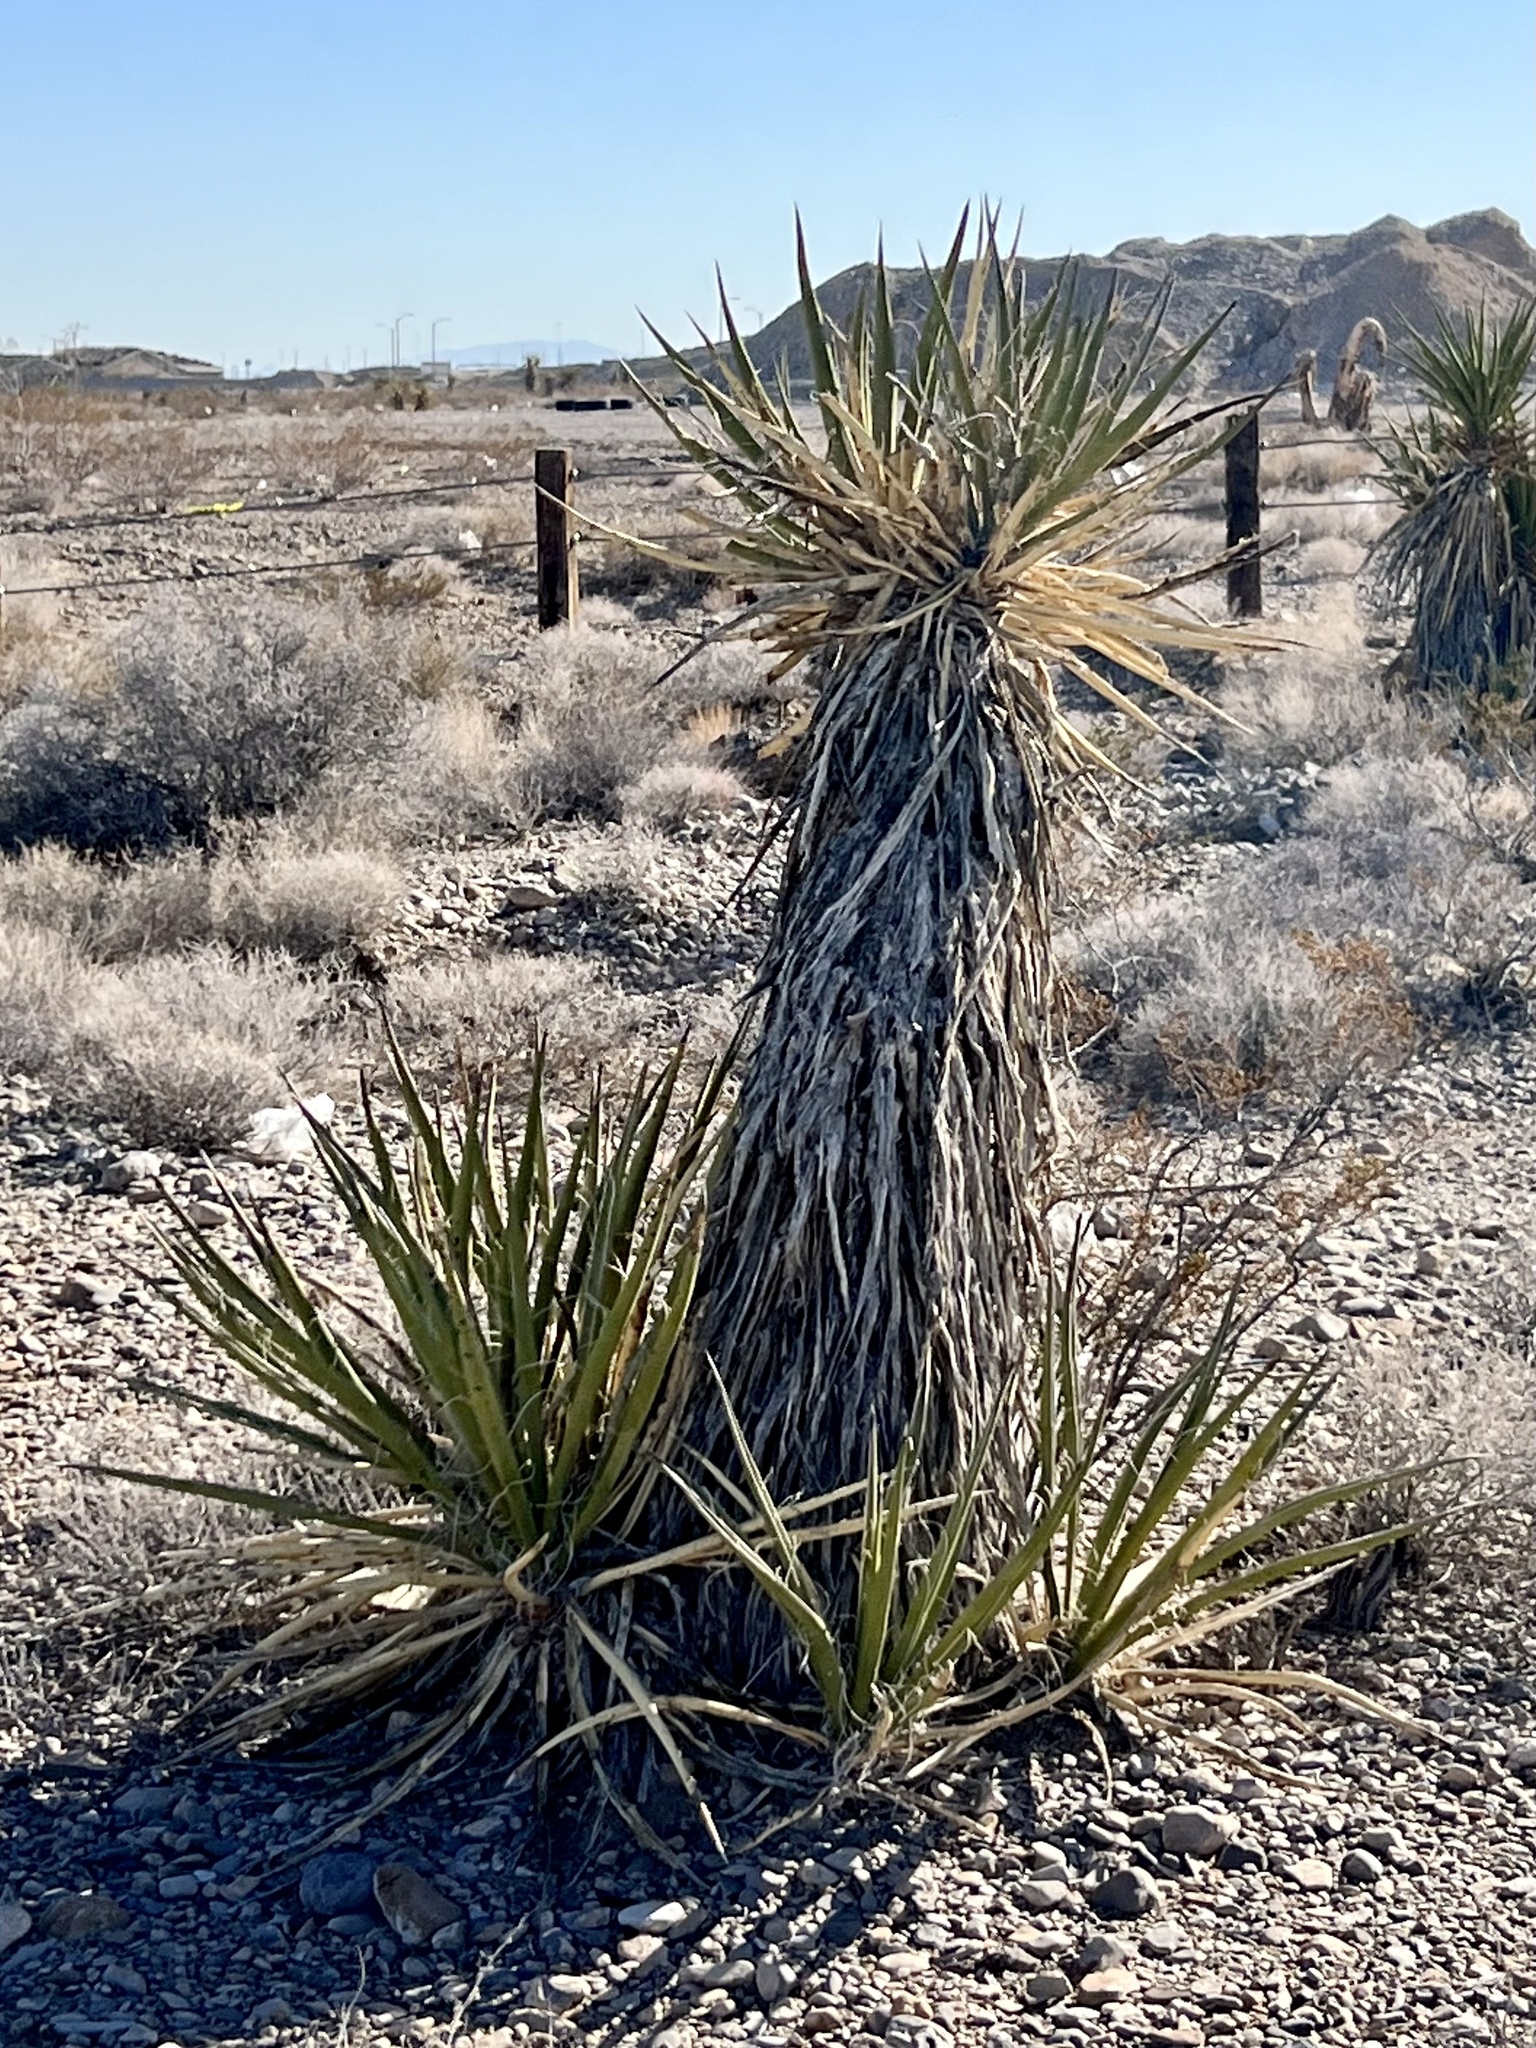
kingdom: Plantae
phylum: Tracheophyta
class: Liliopsida
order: Asparagales
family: Asparagaceae
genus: Yucca
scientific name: Yucca schidigera
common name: Mojave yucca
